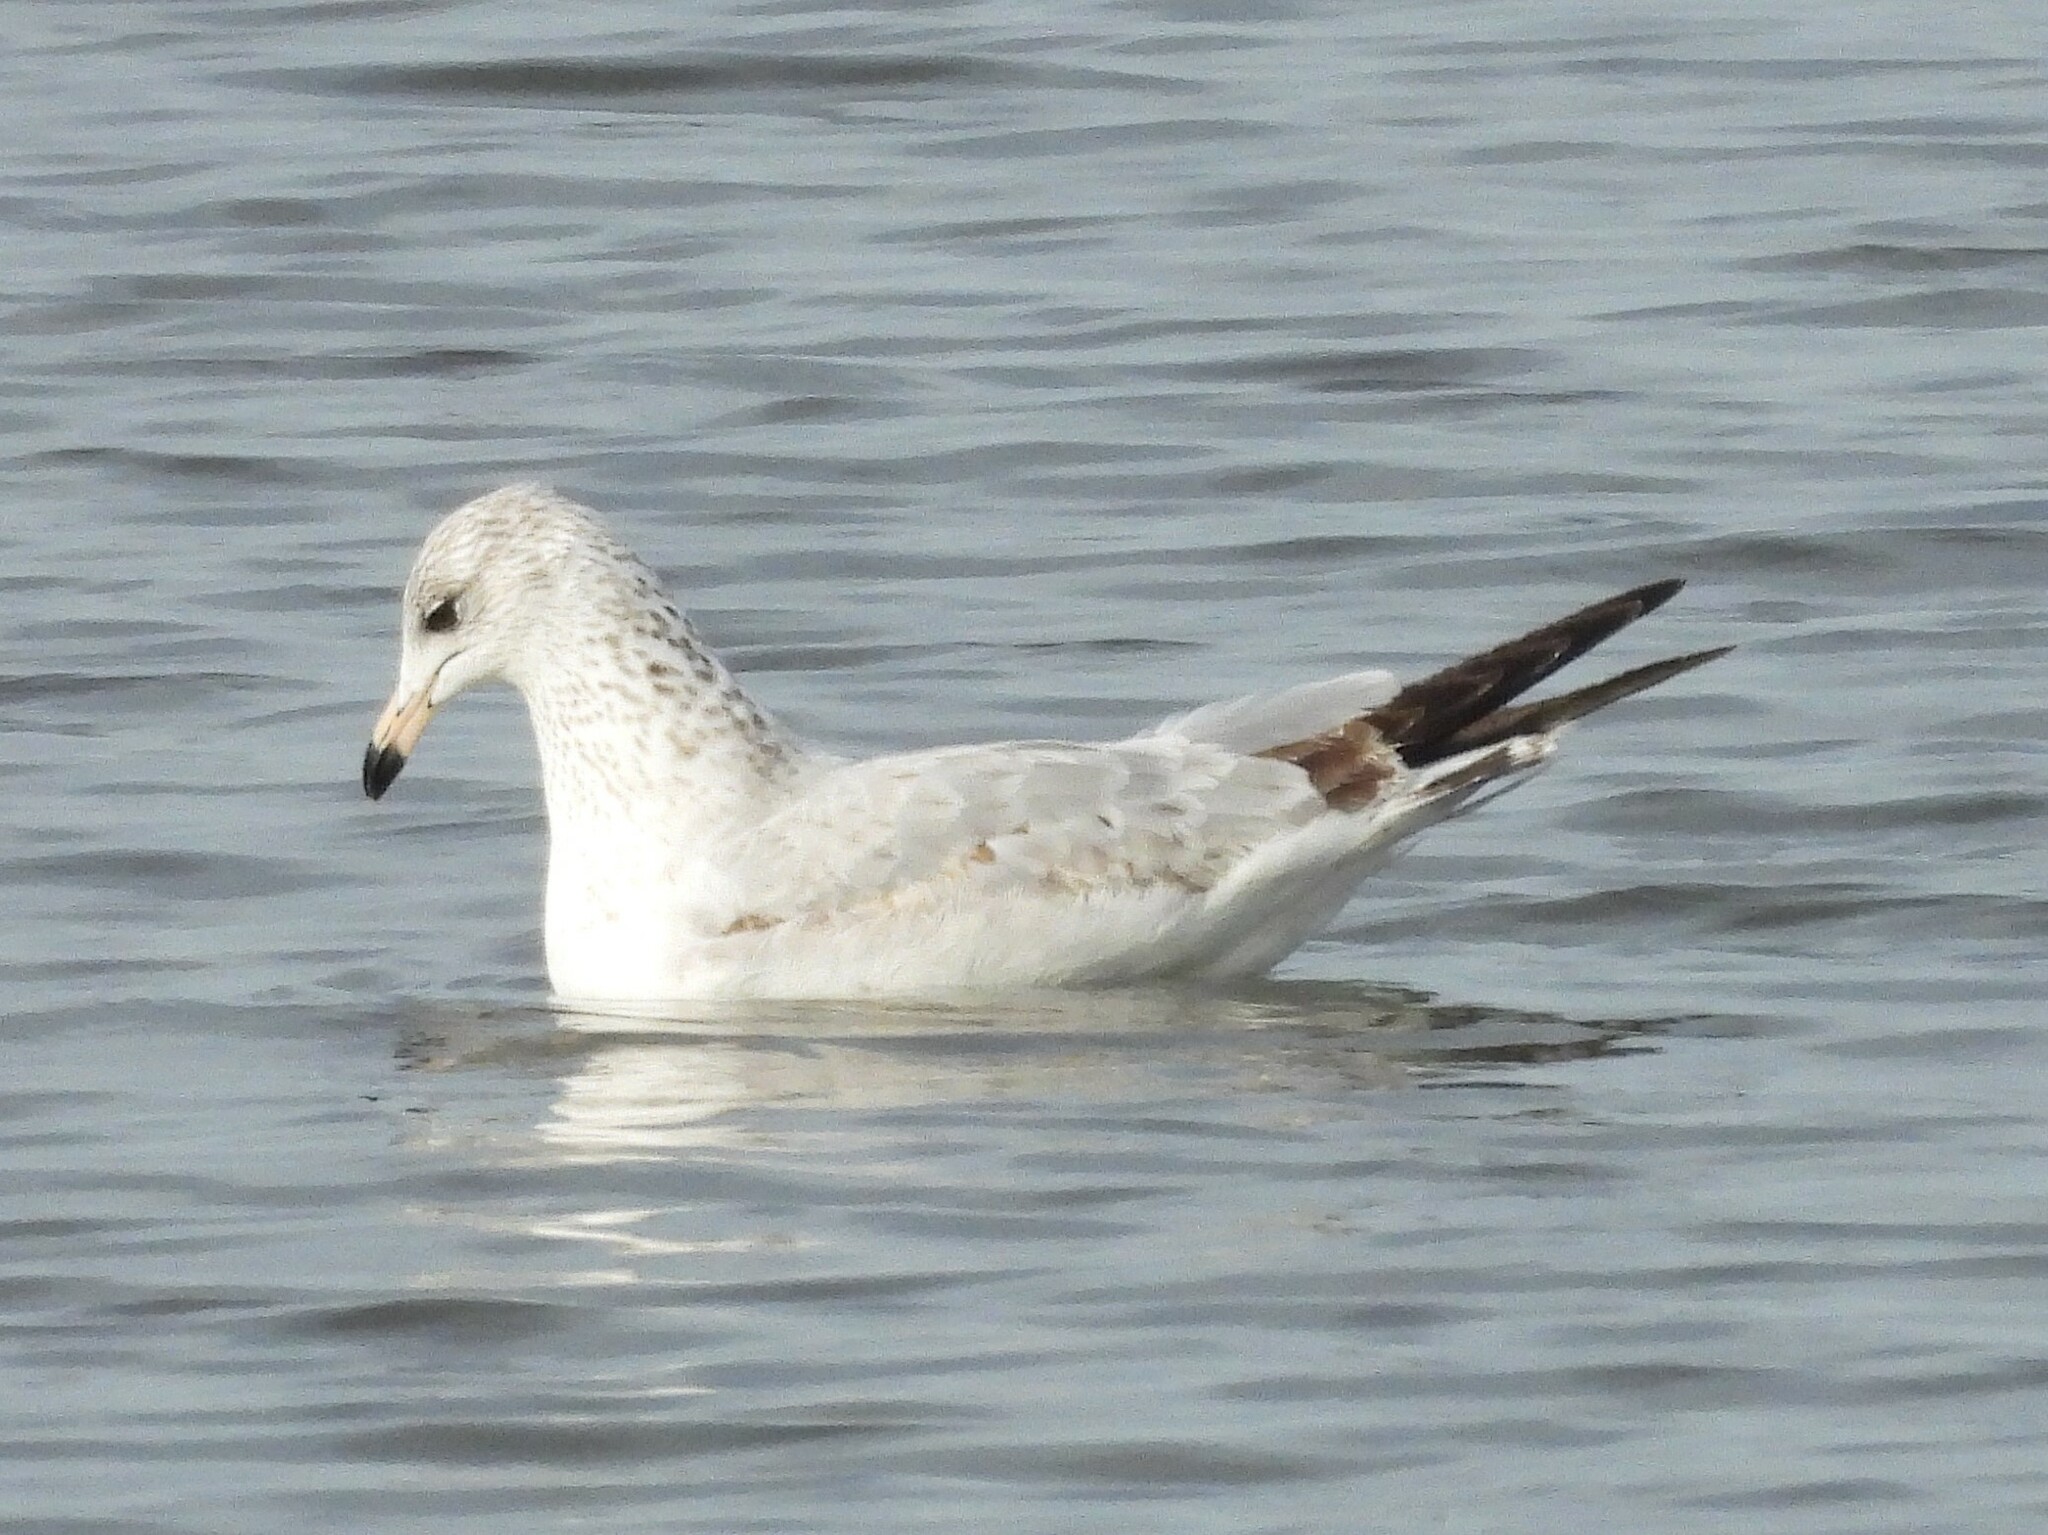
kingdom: Animalia
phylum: Chordata
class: Aves
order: Charadriiformes
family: Laridae
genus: Larus
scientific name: Larus delawarensis
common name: Ring-billed gull
